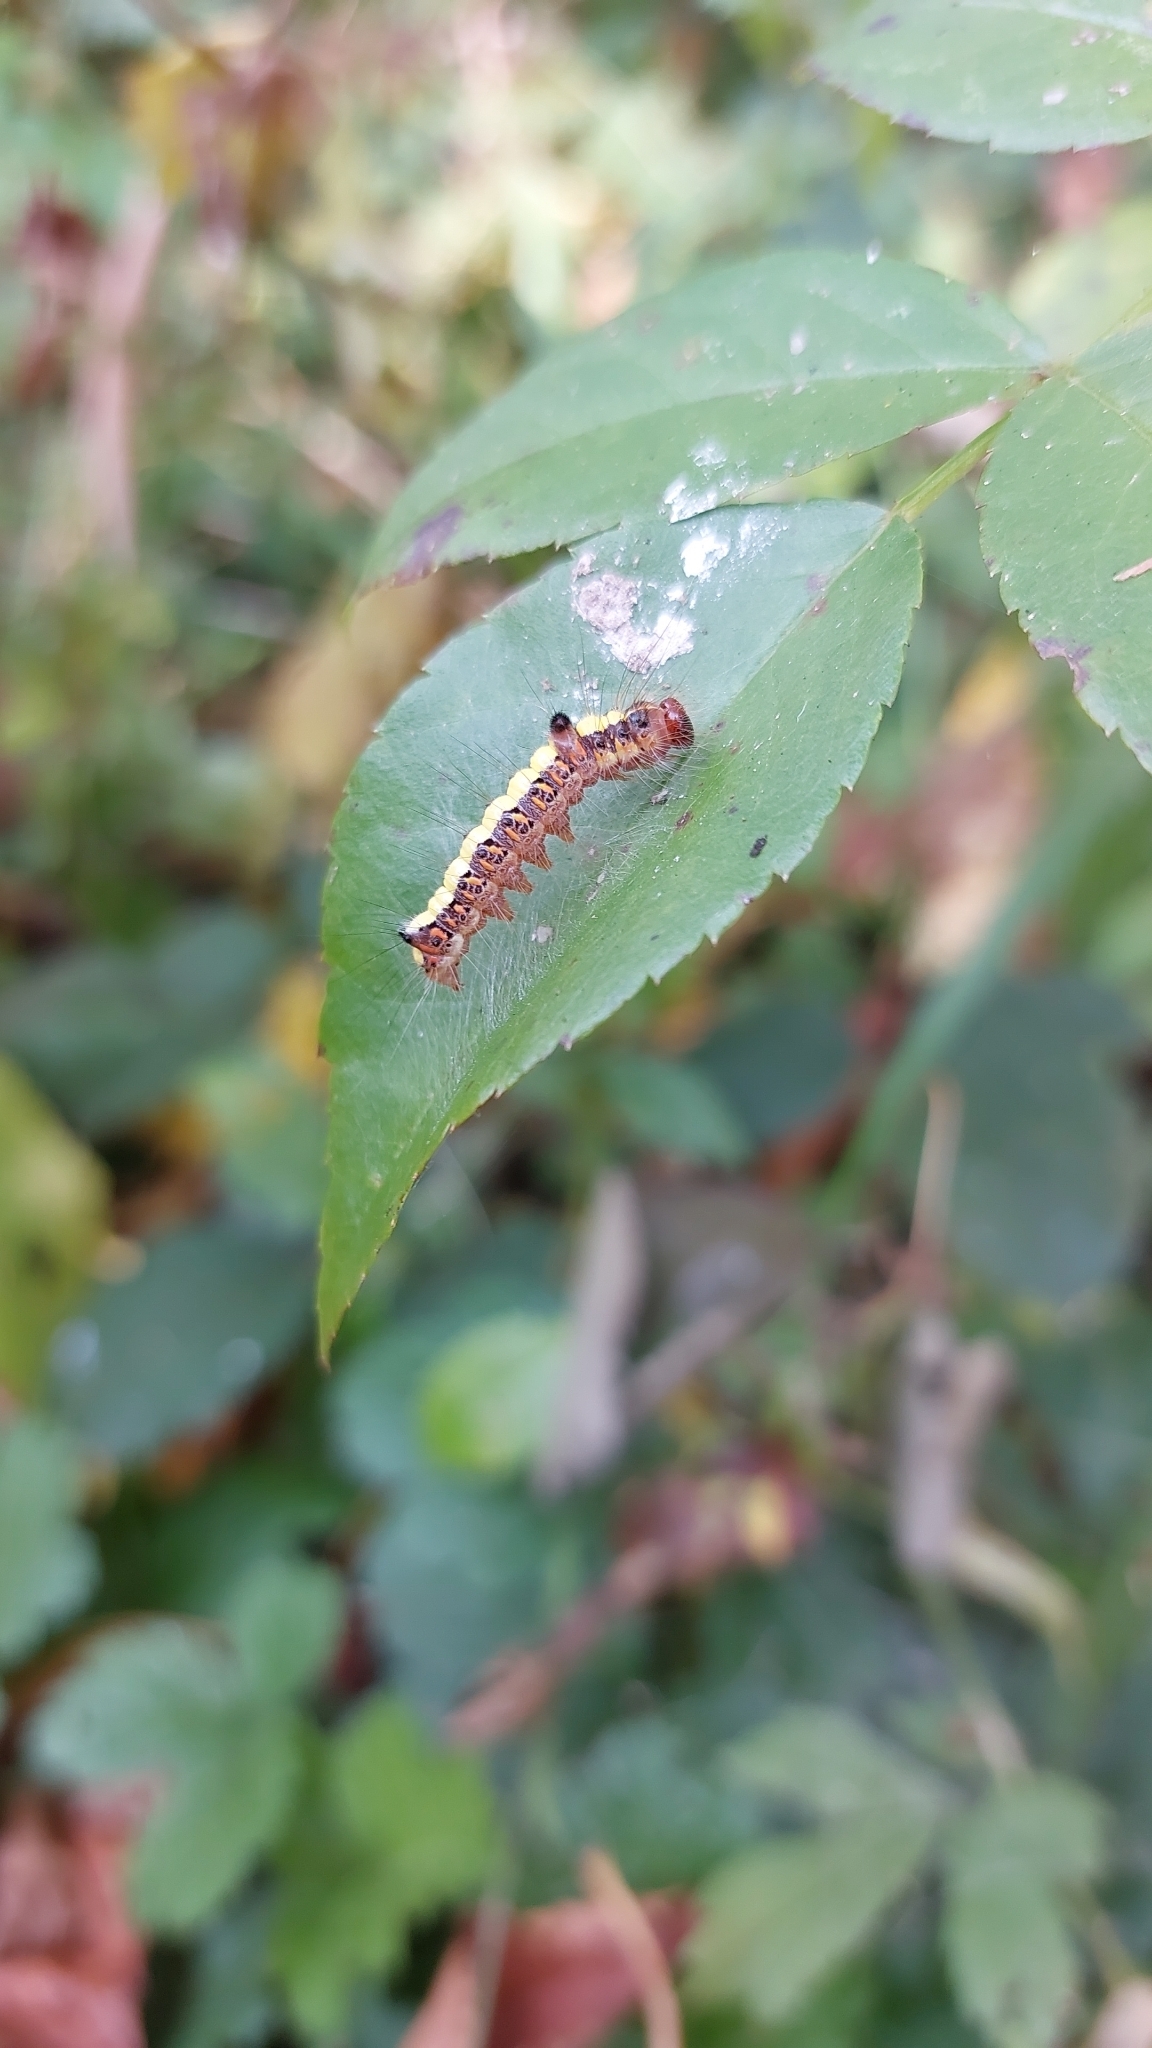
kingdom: Animalia
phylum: Arthropoda
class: Insecta
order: Lepidoptera
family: Noctuidae
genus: Acronicta
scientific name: Acronicta psi
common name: Grey dagger
